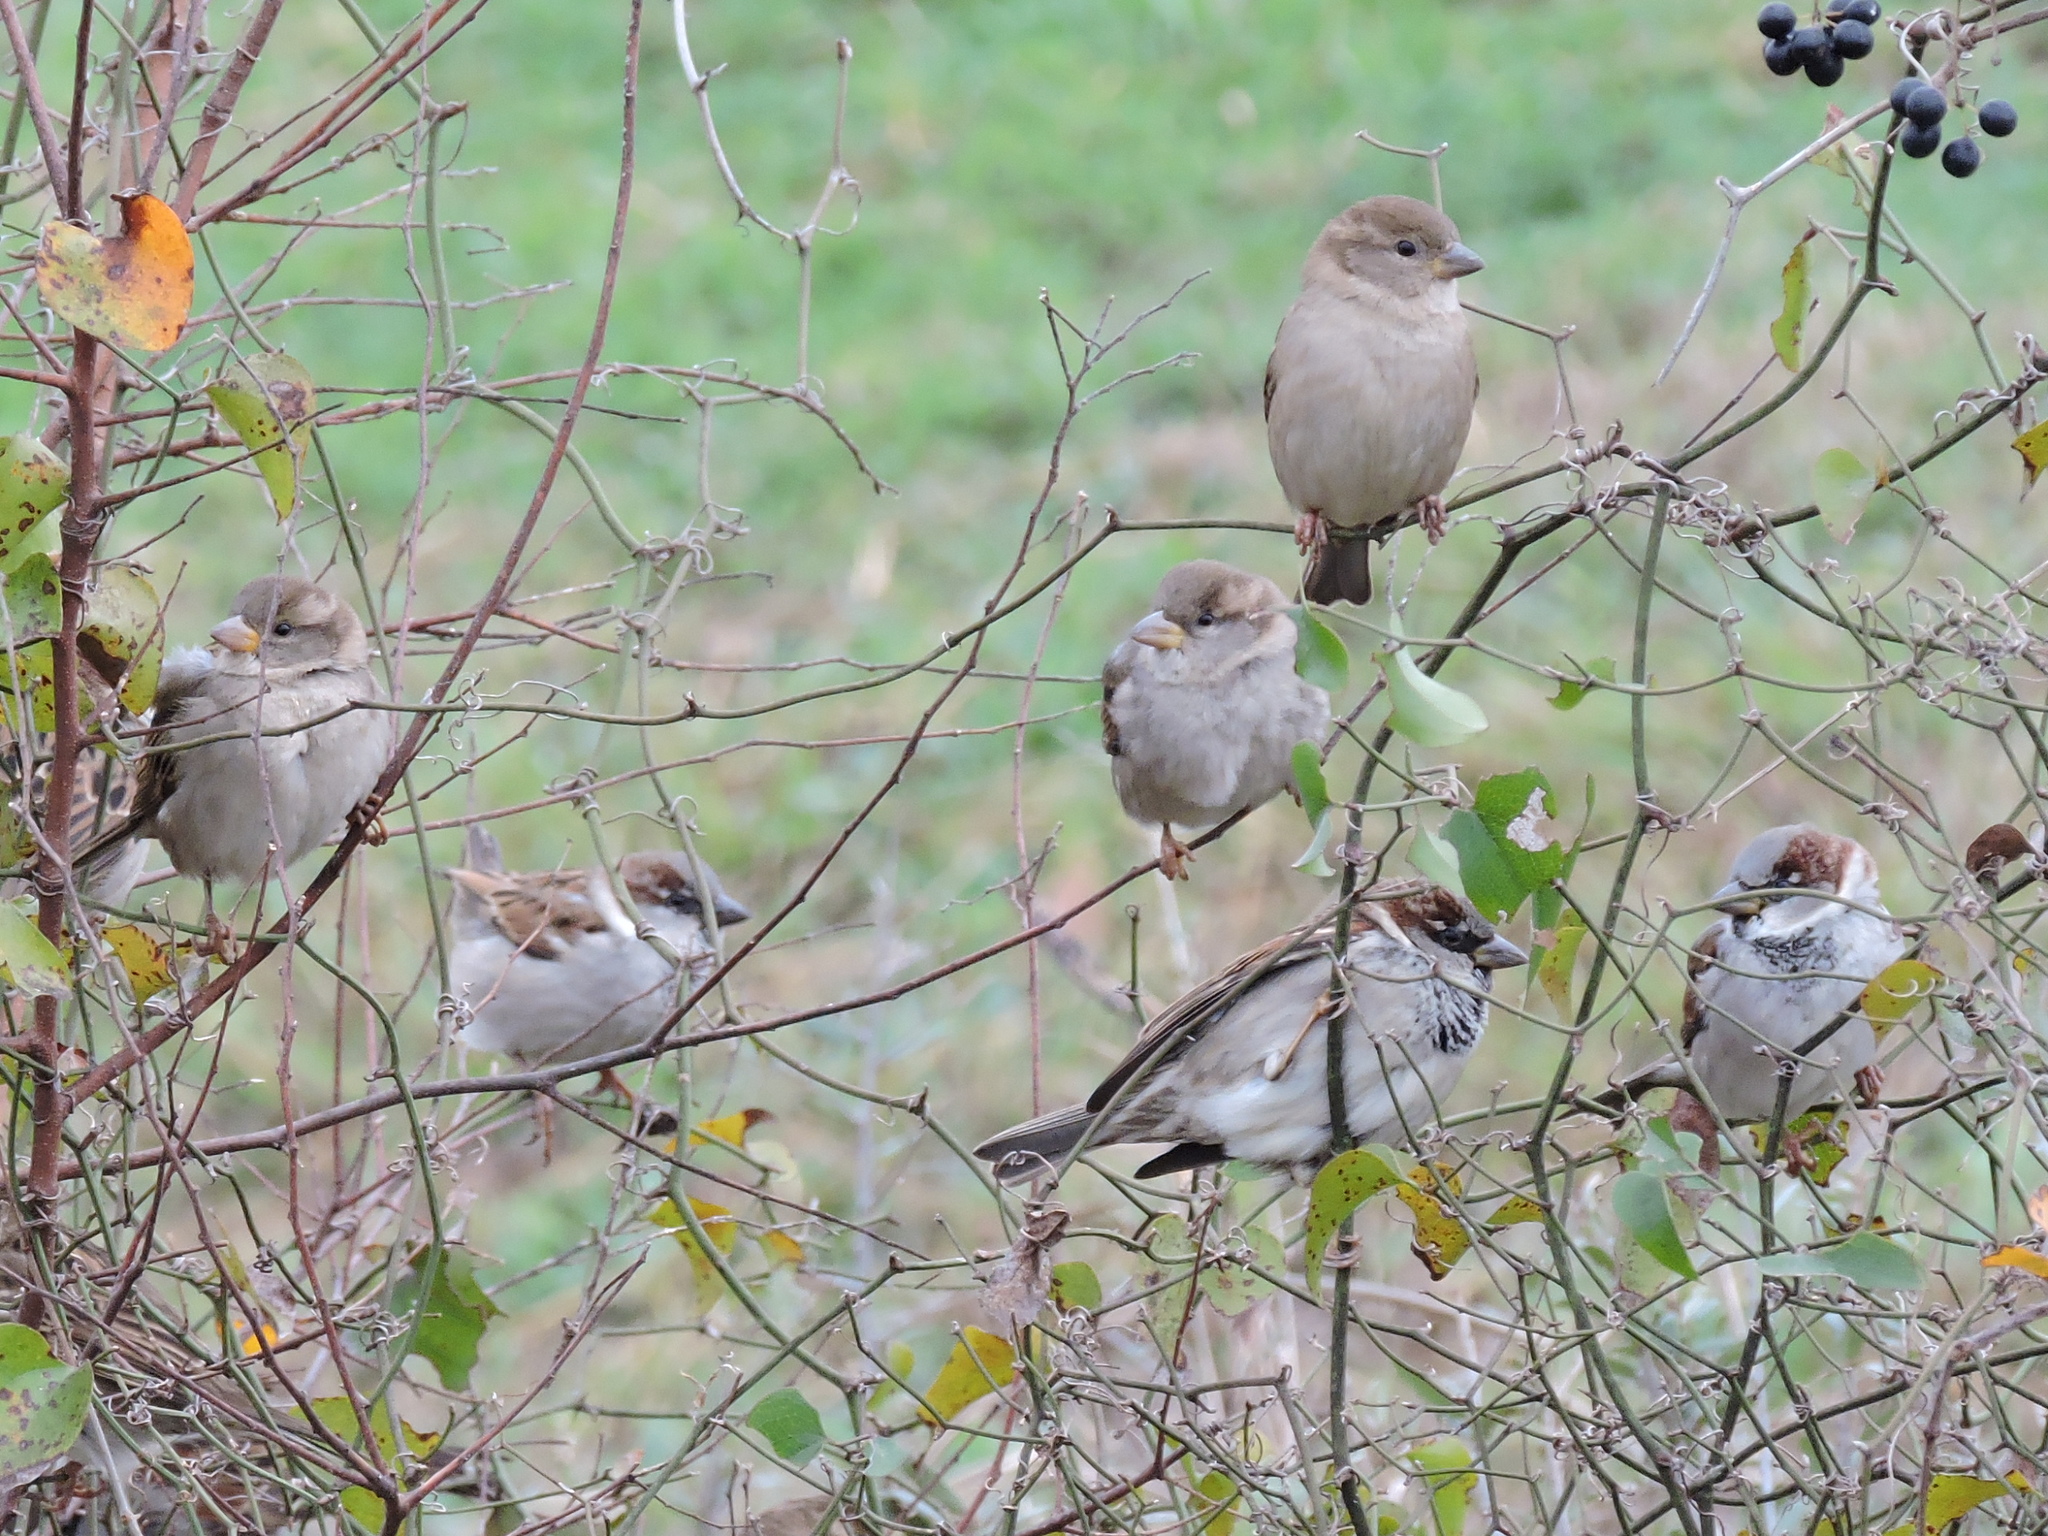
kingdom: Animalia
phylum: Chordata
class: Aves
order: Passeriformes
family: Passeridae
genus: Passer
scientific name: Passer domesticus
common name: House sparrow
